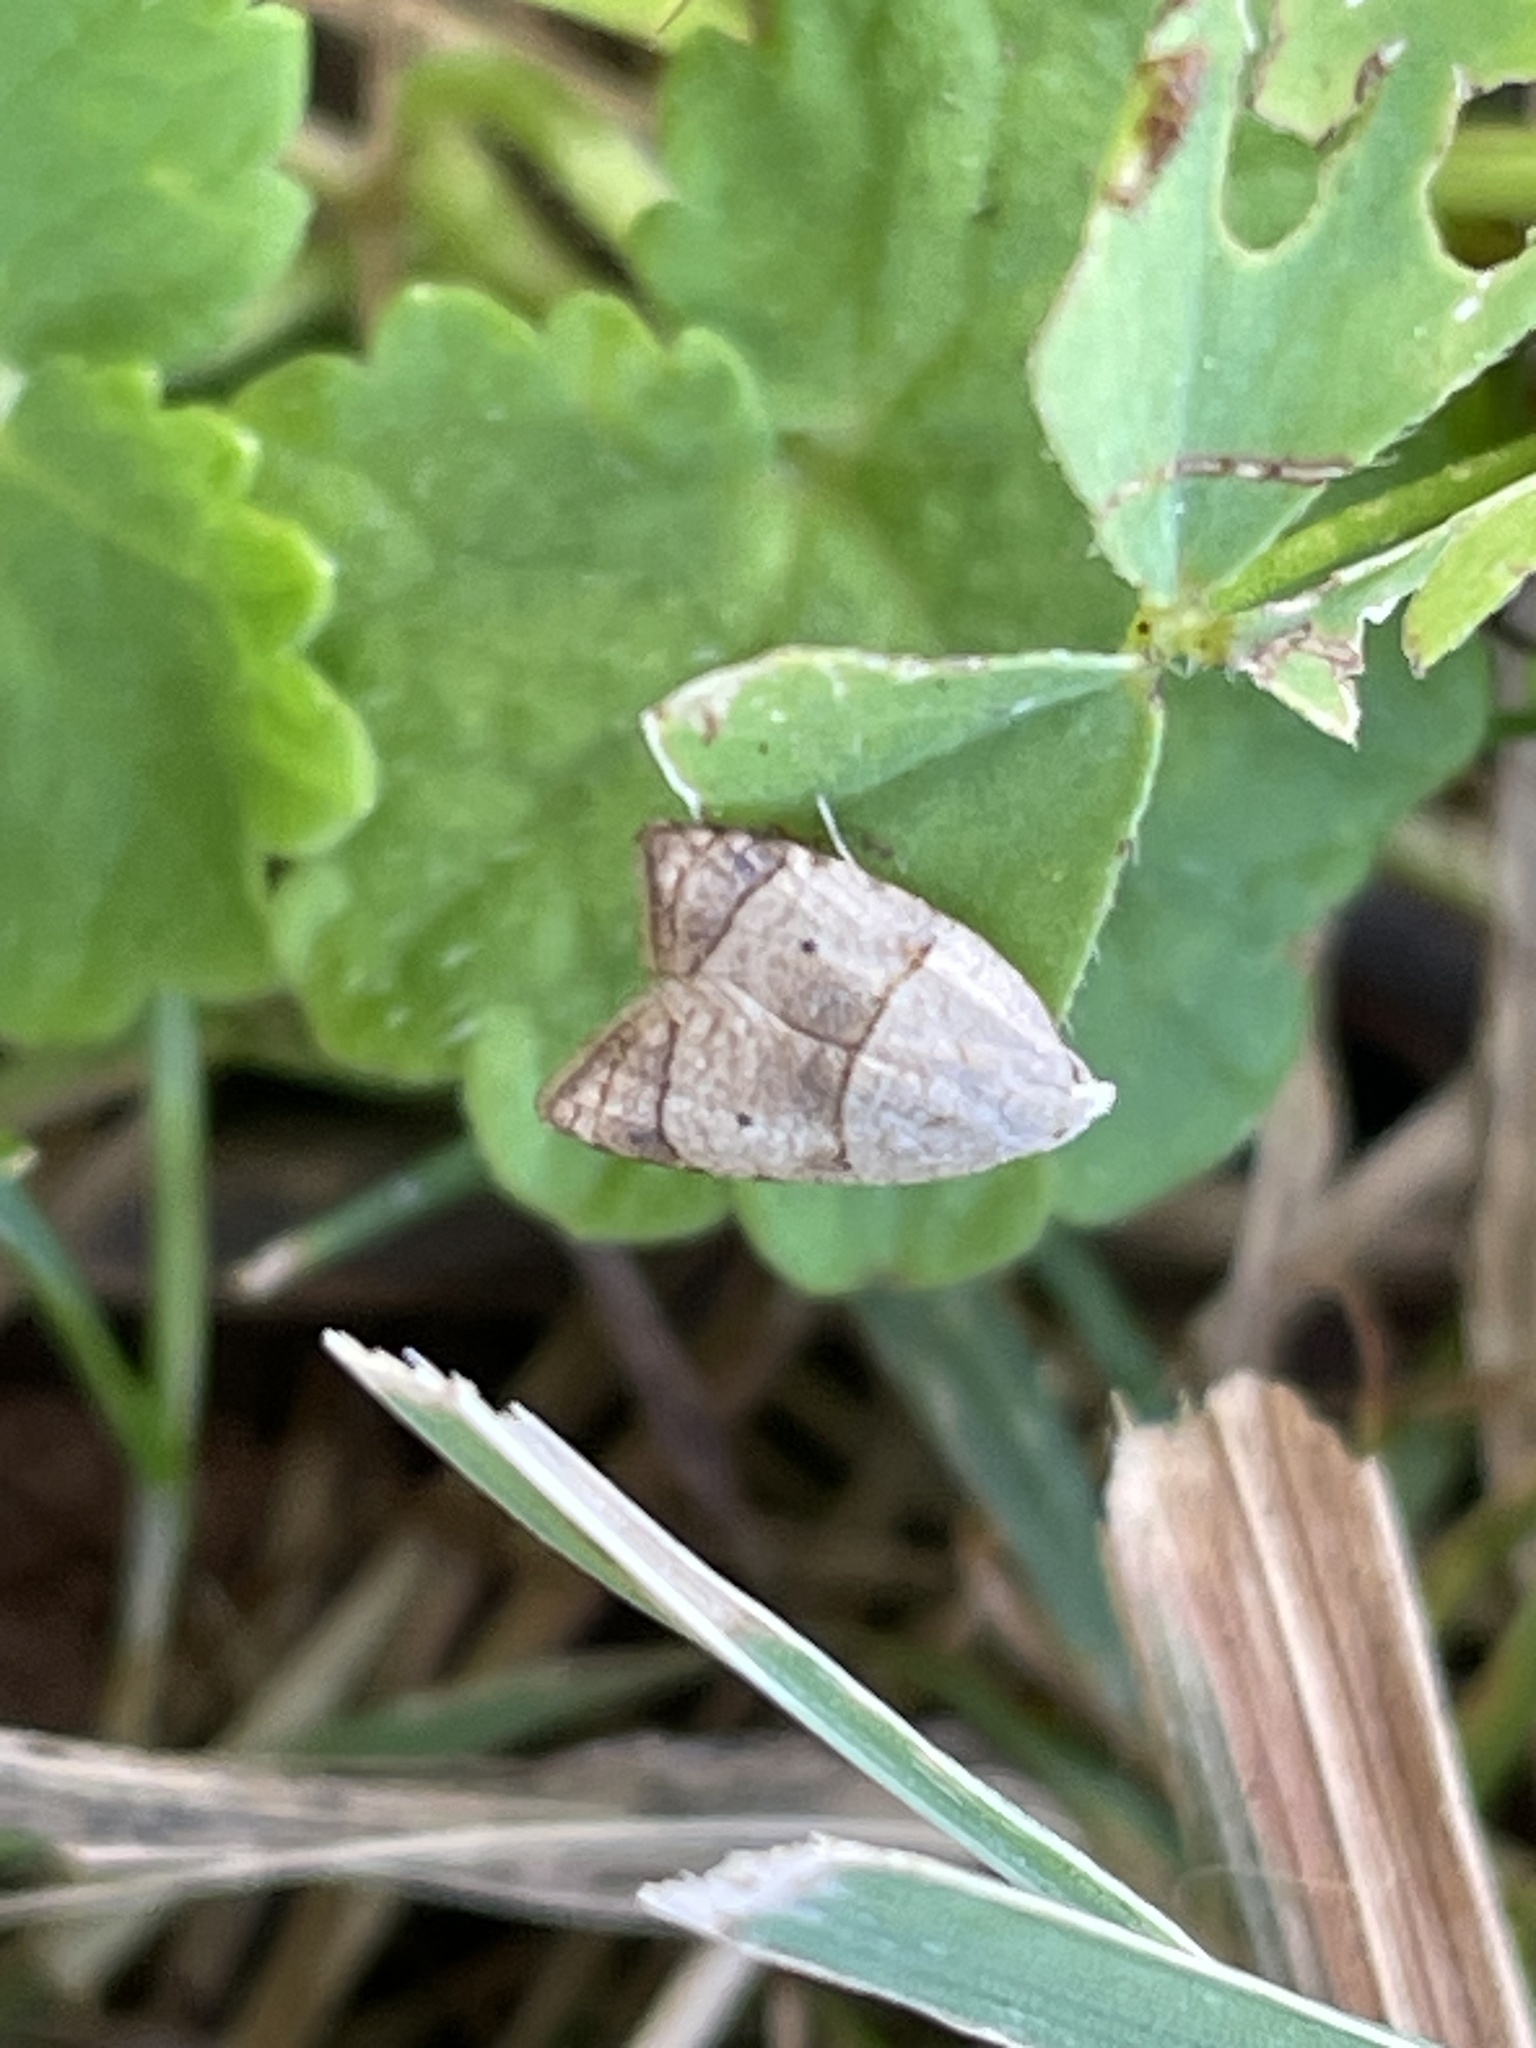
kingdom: Animalia
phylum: Arthropoda
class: Insecta
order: Lepidoptera
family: Tortricidae
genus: Coelostathma
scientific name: Coelostathma discopunctana
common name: Batman moth
